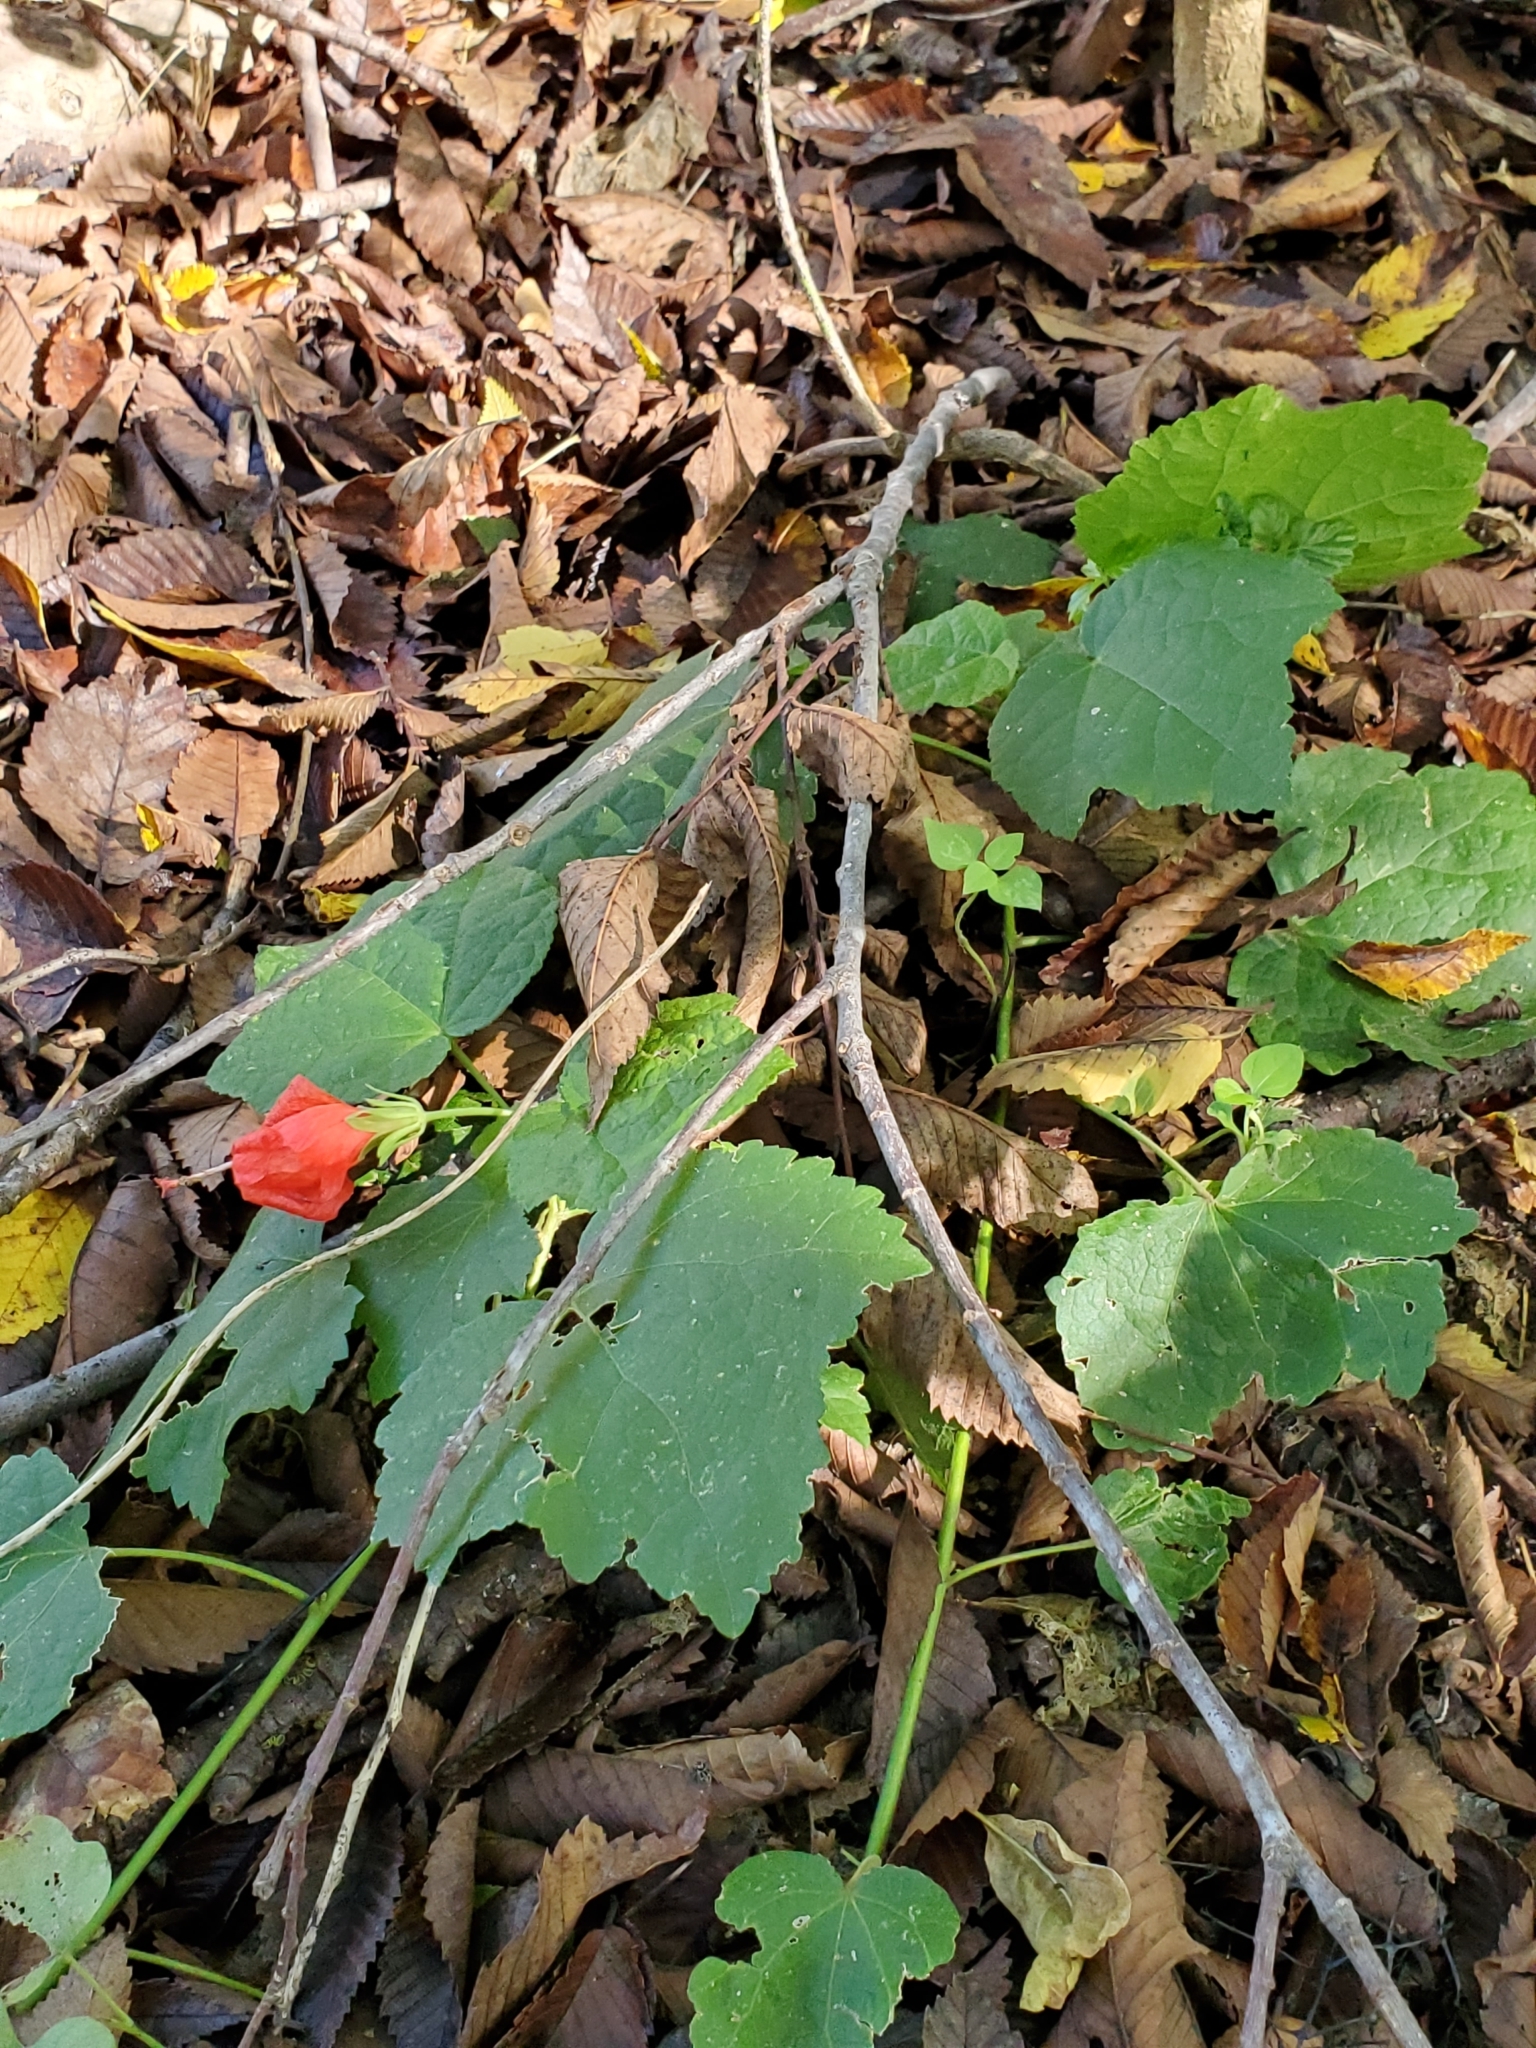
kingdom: Plantae
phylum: Tracheophyta
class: Magnoliopsida
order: Malvales
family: Malvaceae
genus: Malvaviscus
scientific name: Malvaviscus arboreus
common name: Wax mallow
